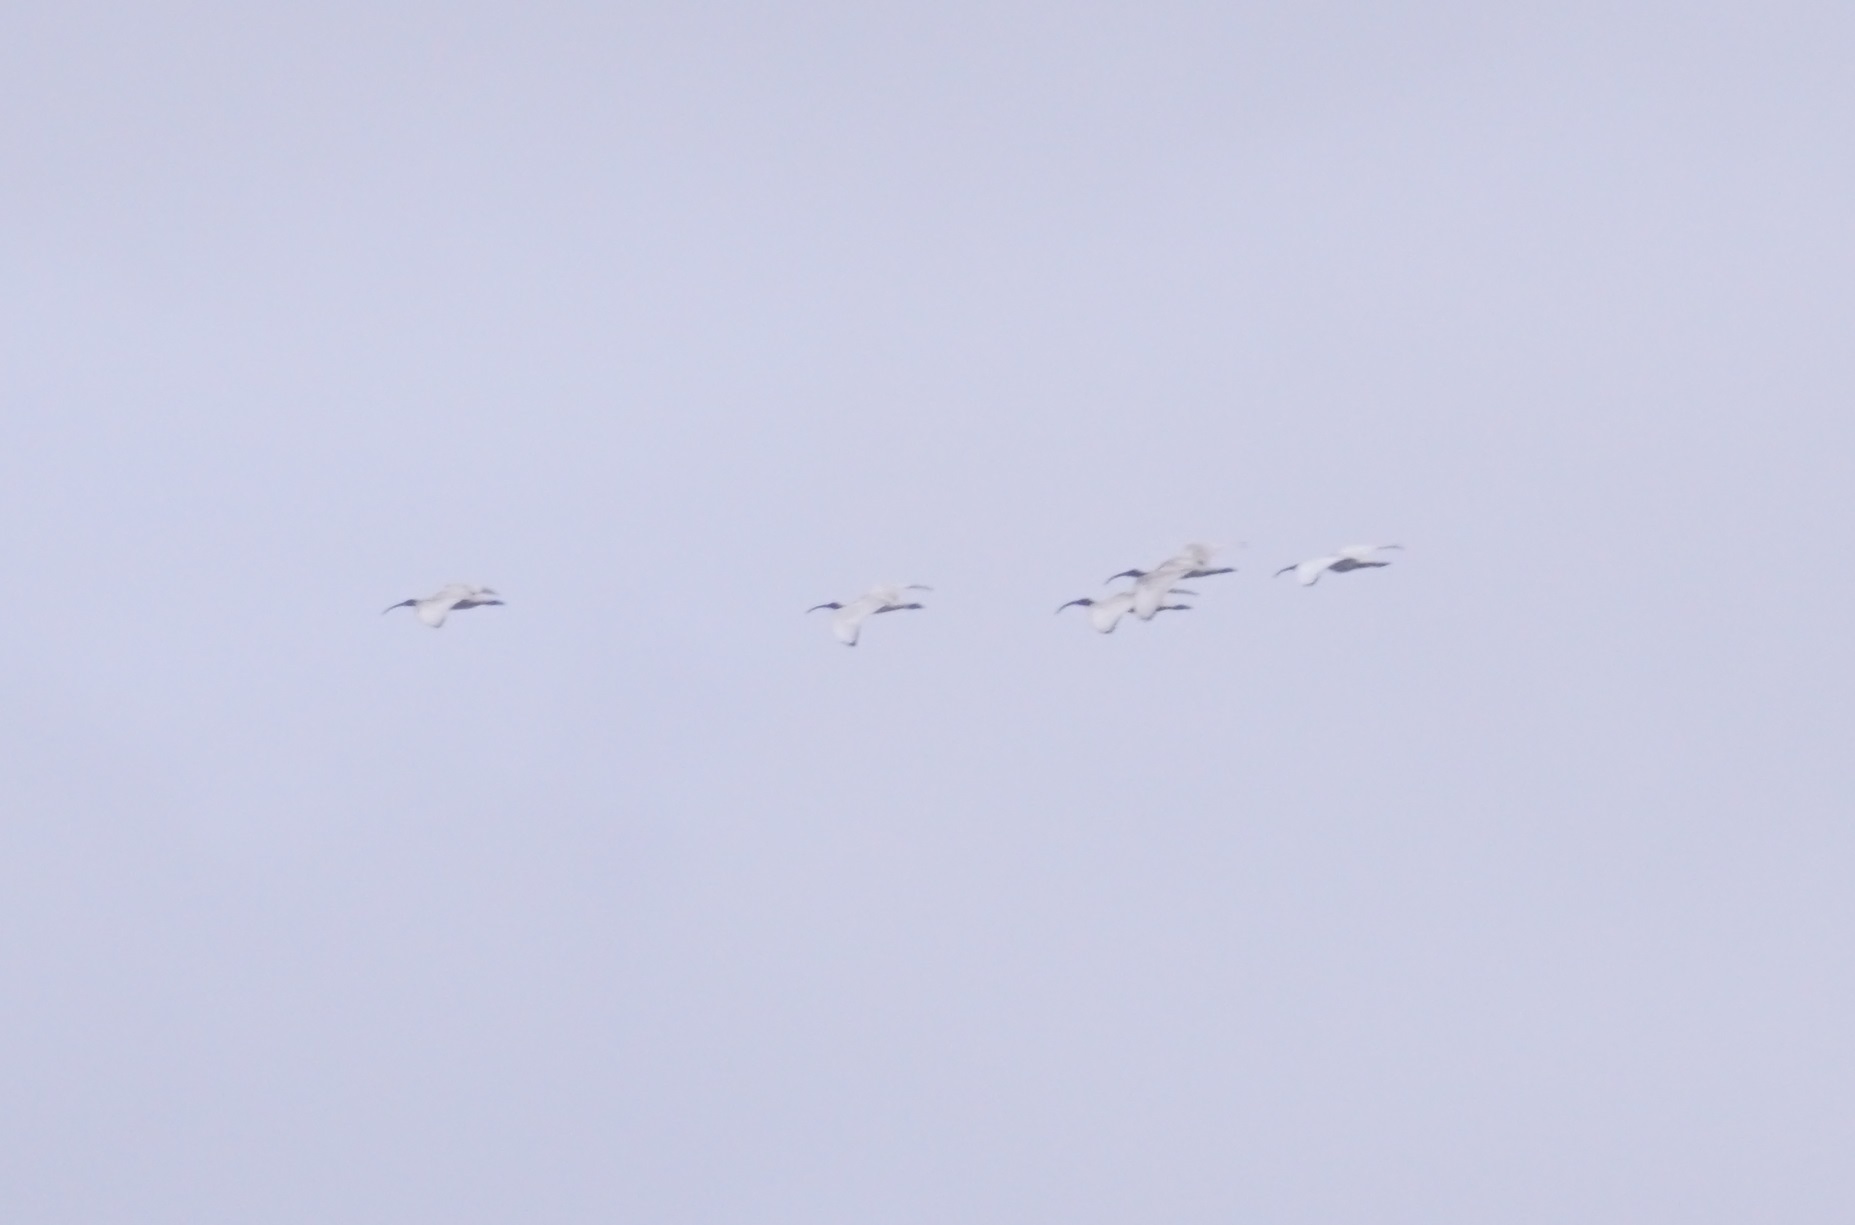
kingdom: Animalia
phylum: Chordata
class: Aves
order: Pelecaniformes
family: Threskiornithidae
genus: Threskiornis
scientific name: Threskiornis molucca
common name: Australian white ibis
